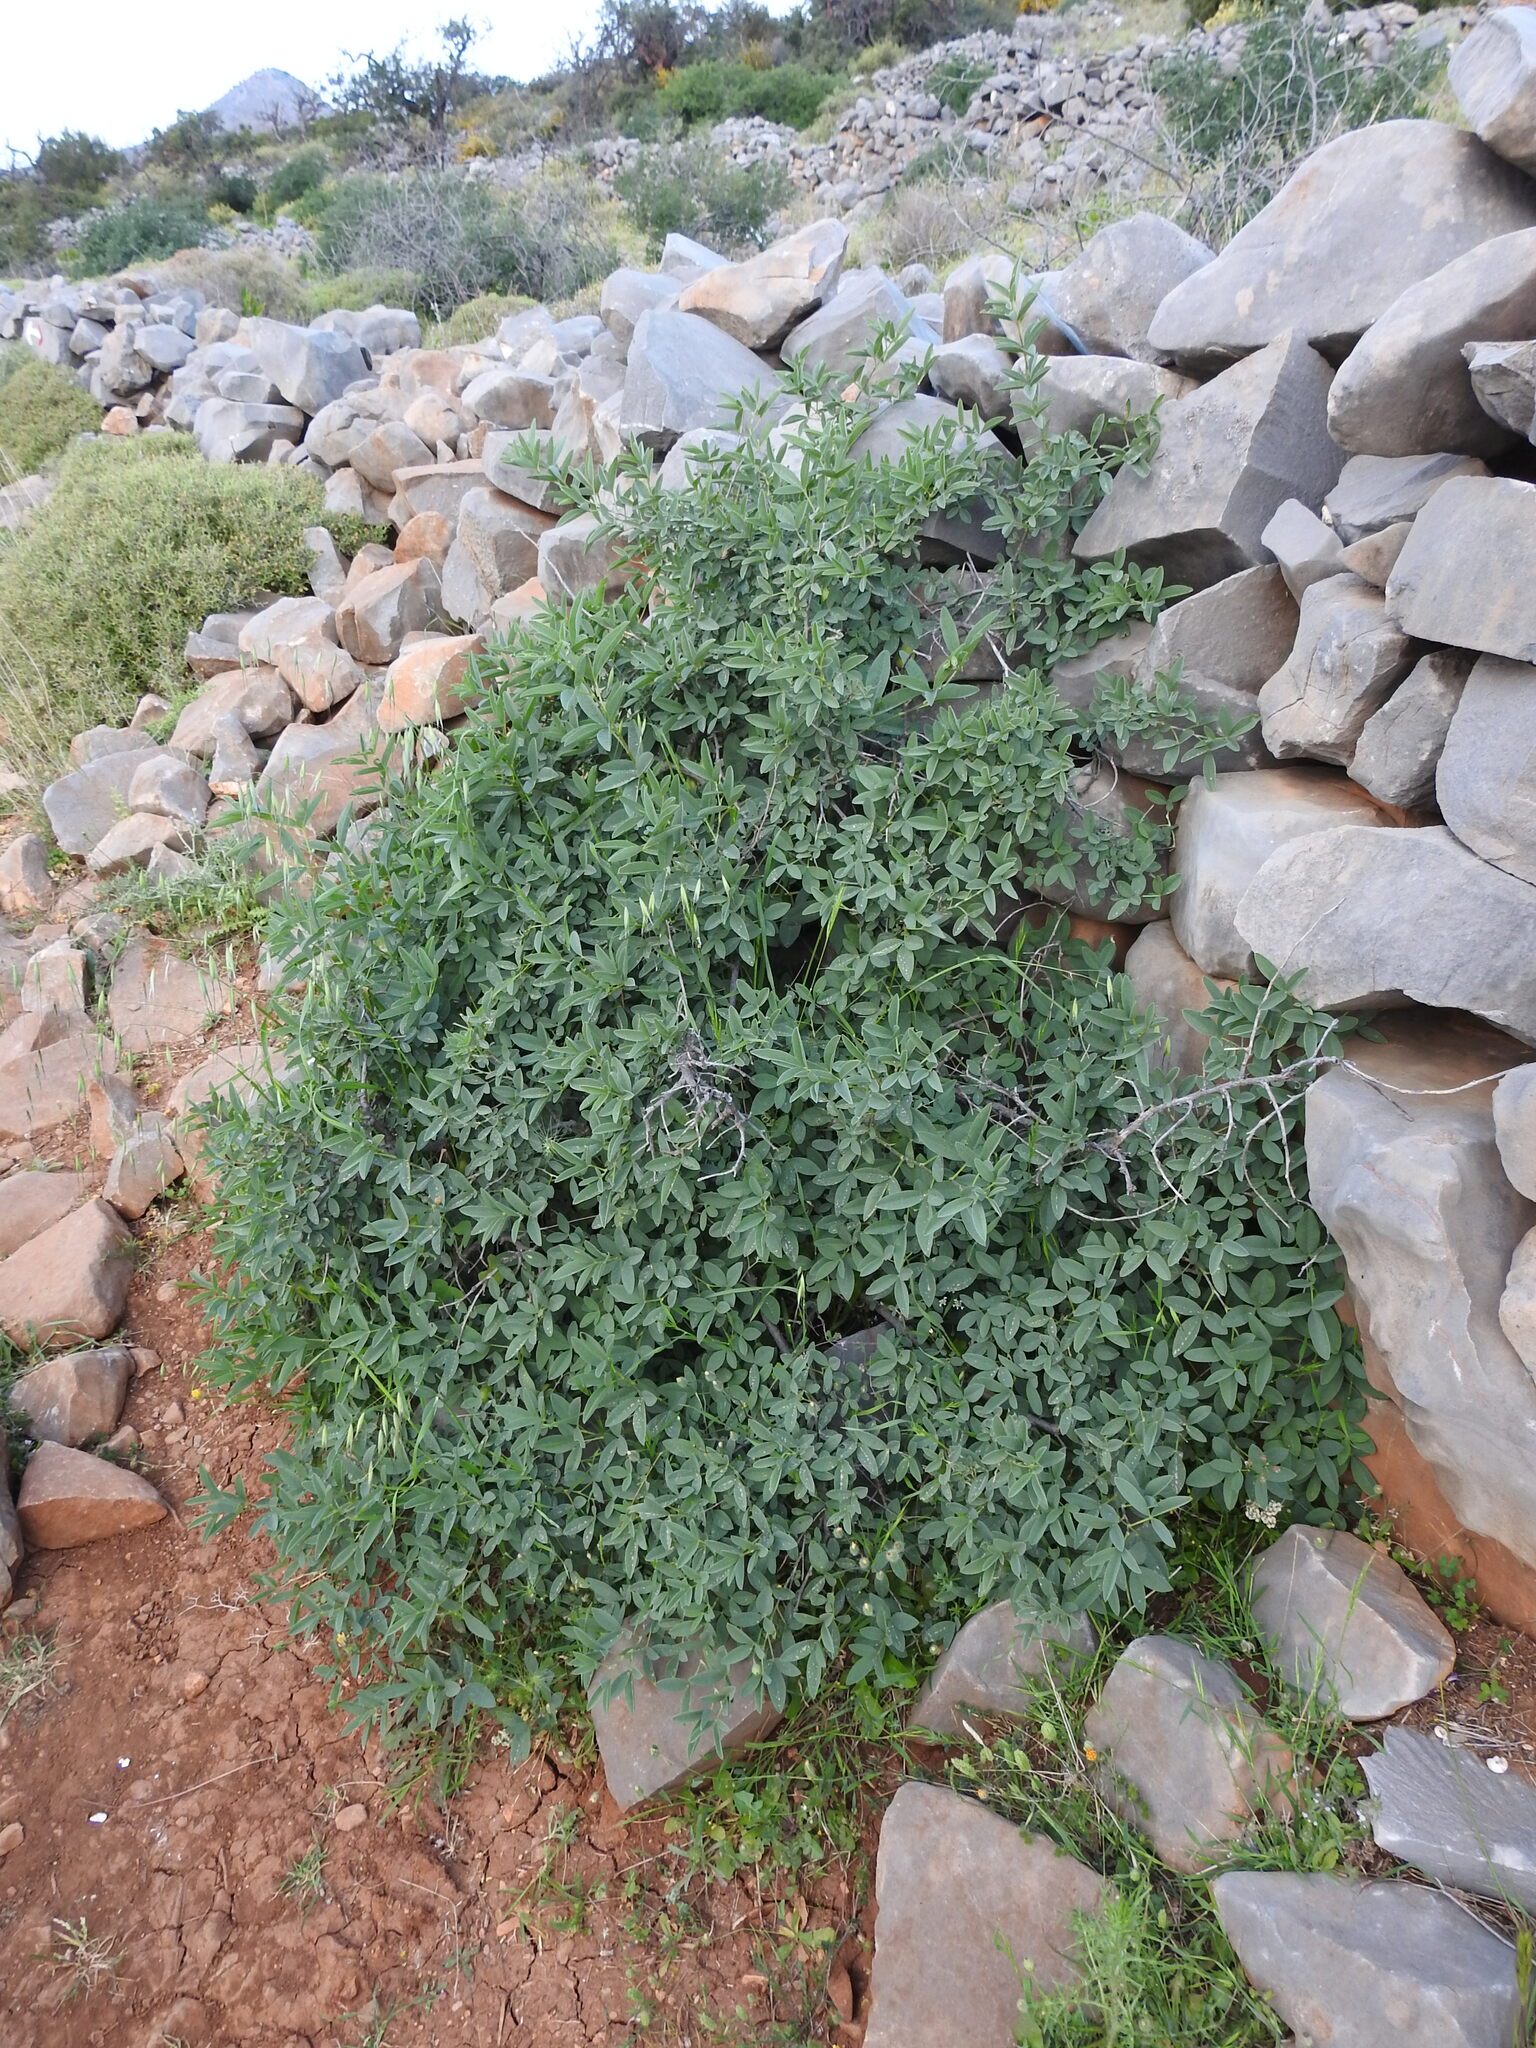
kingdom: Plantae
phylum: Tracheophyta
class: Magnoliopsida
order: Fabales
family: Fabaceae
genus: Anagyris
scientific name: Anagyris foetida
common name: Stinking bean trefoil
